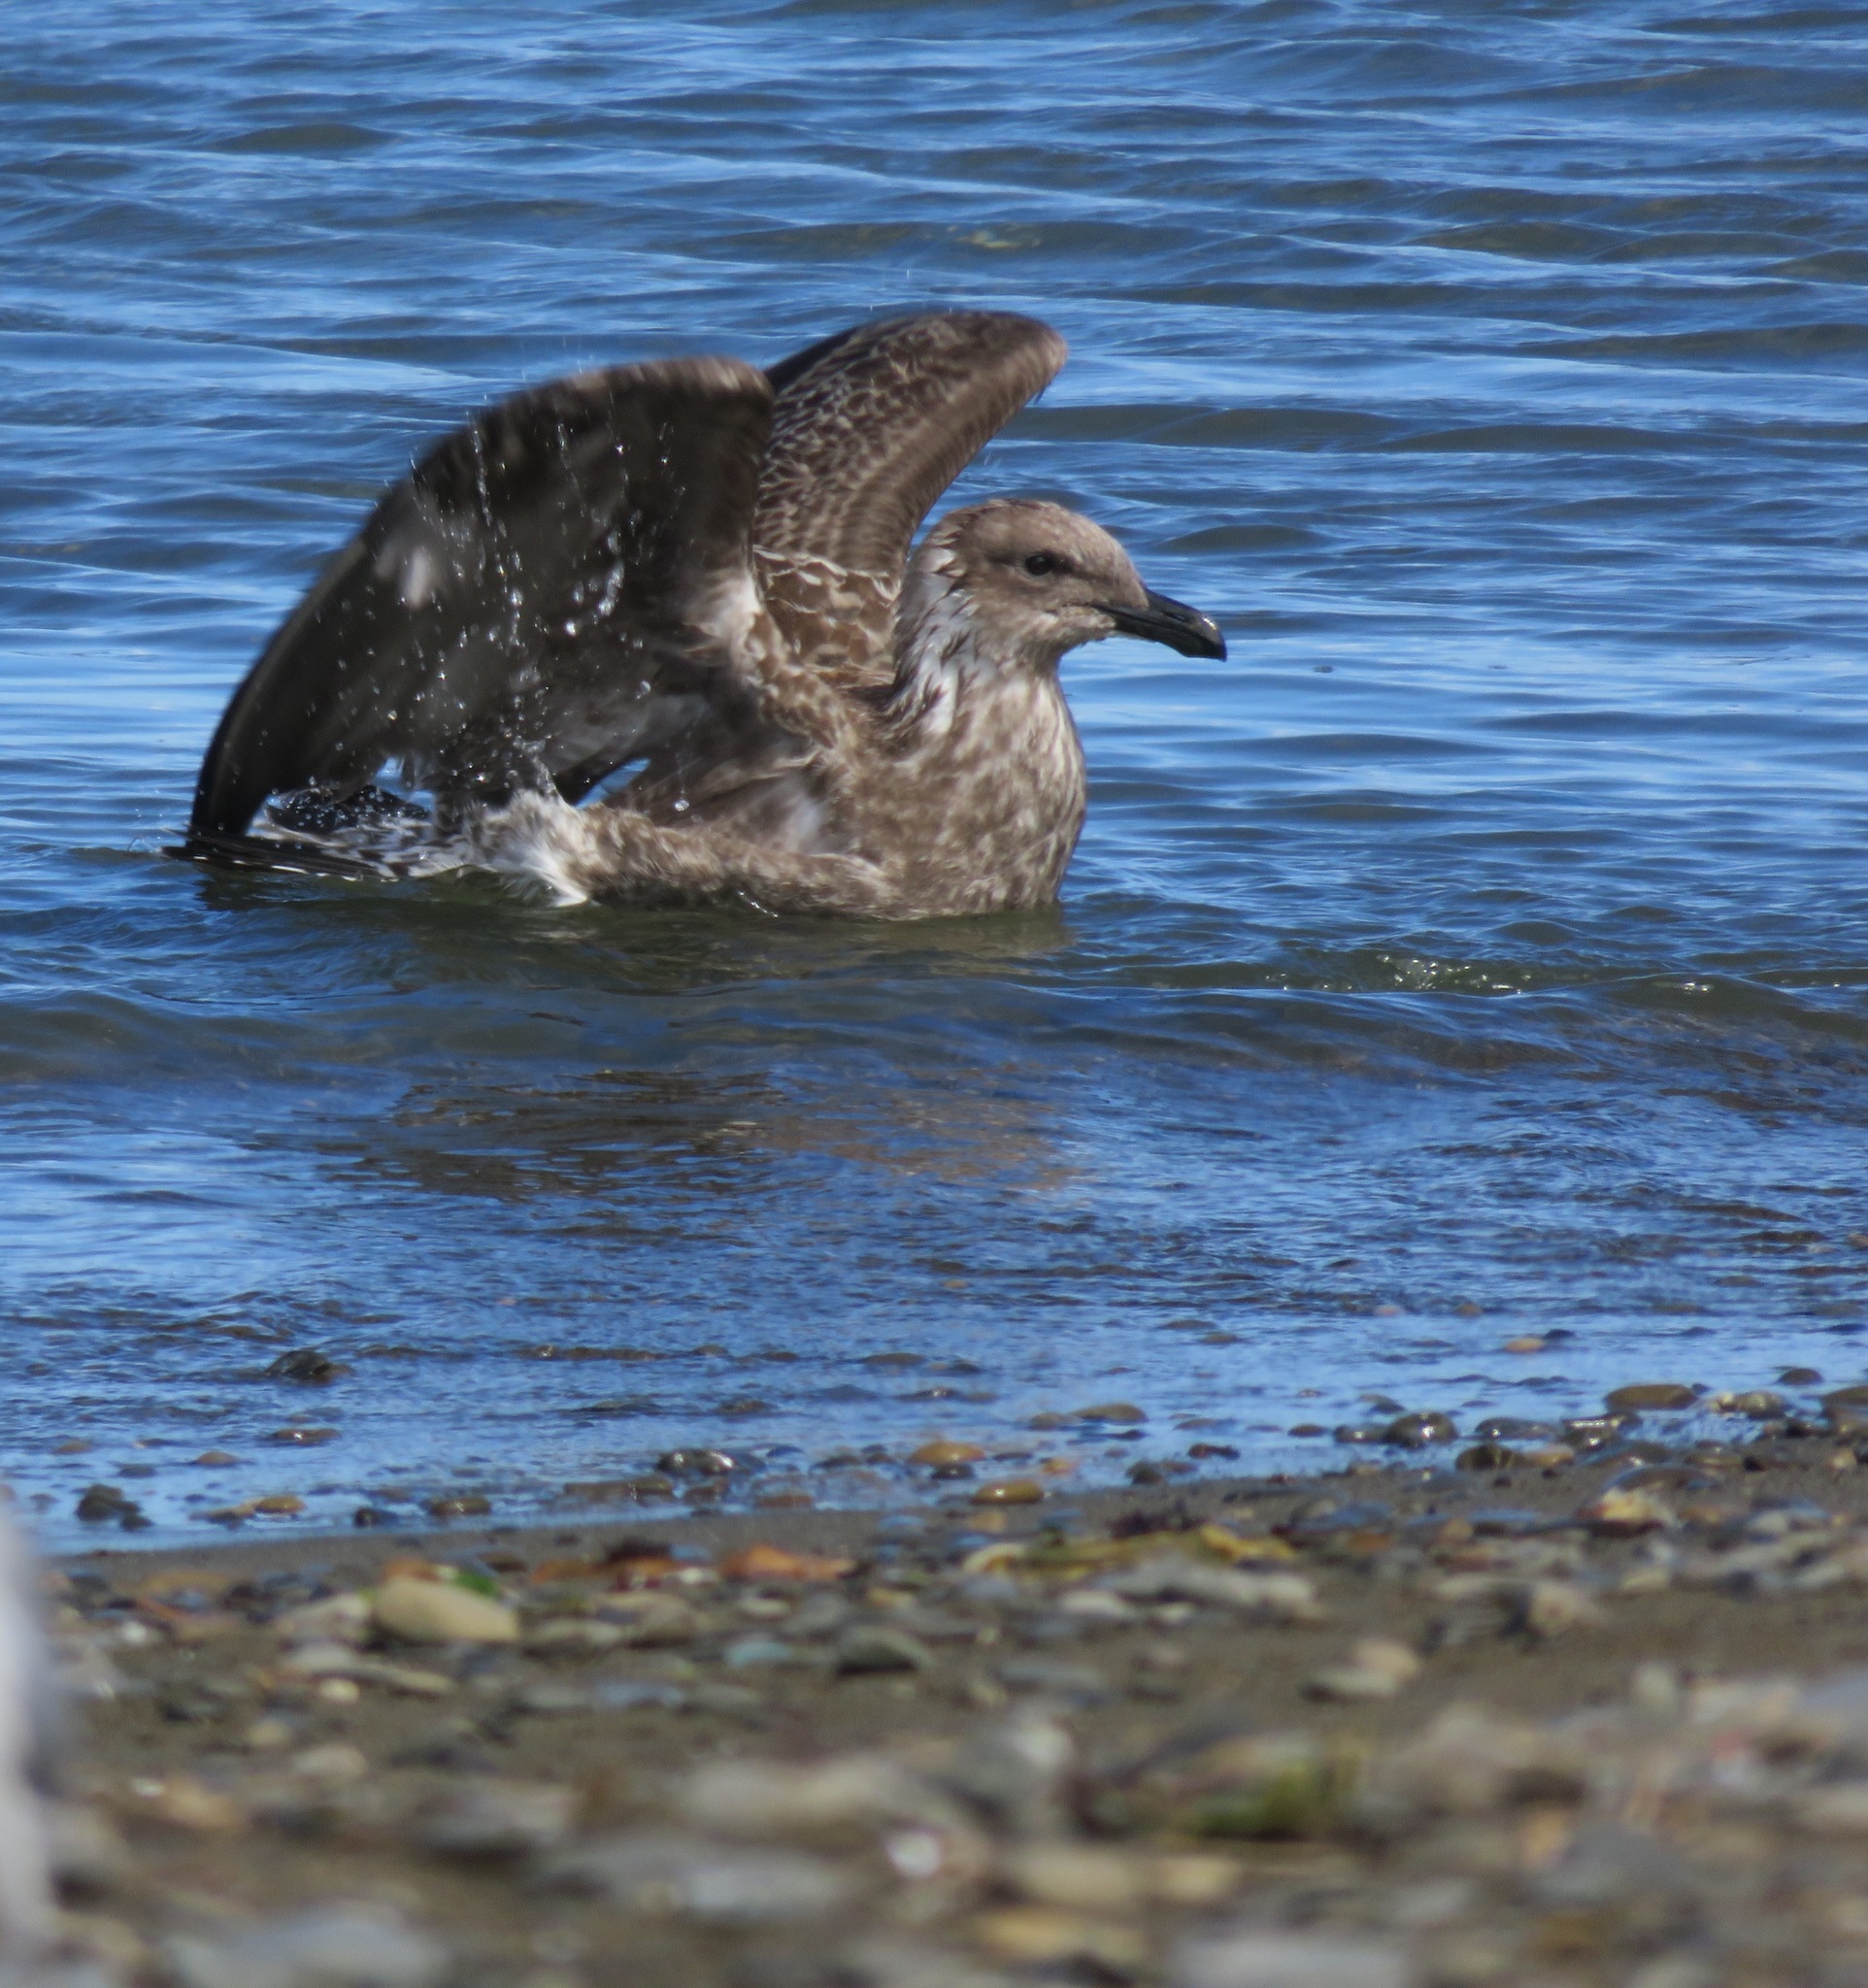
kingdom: Animalia
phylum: Chordata
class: Aves
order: Charadriiformes
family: Laridae
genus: Larus
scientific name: Larus dominicanus
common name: Kelp gull
